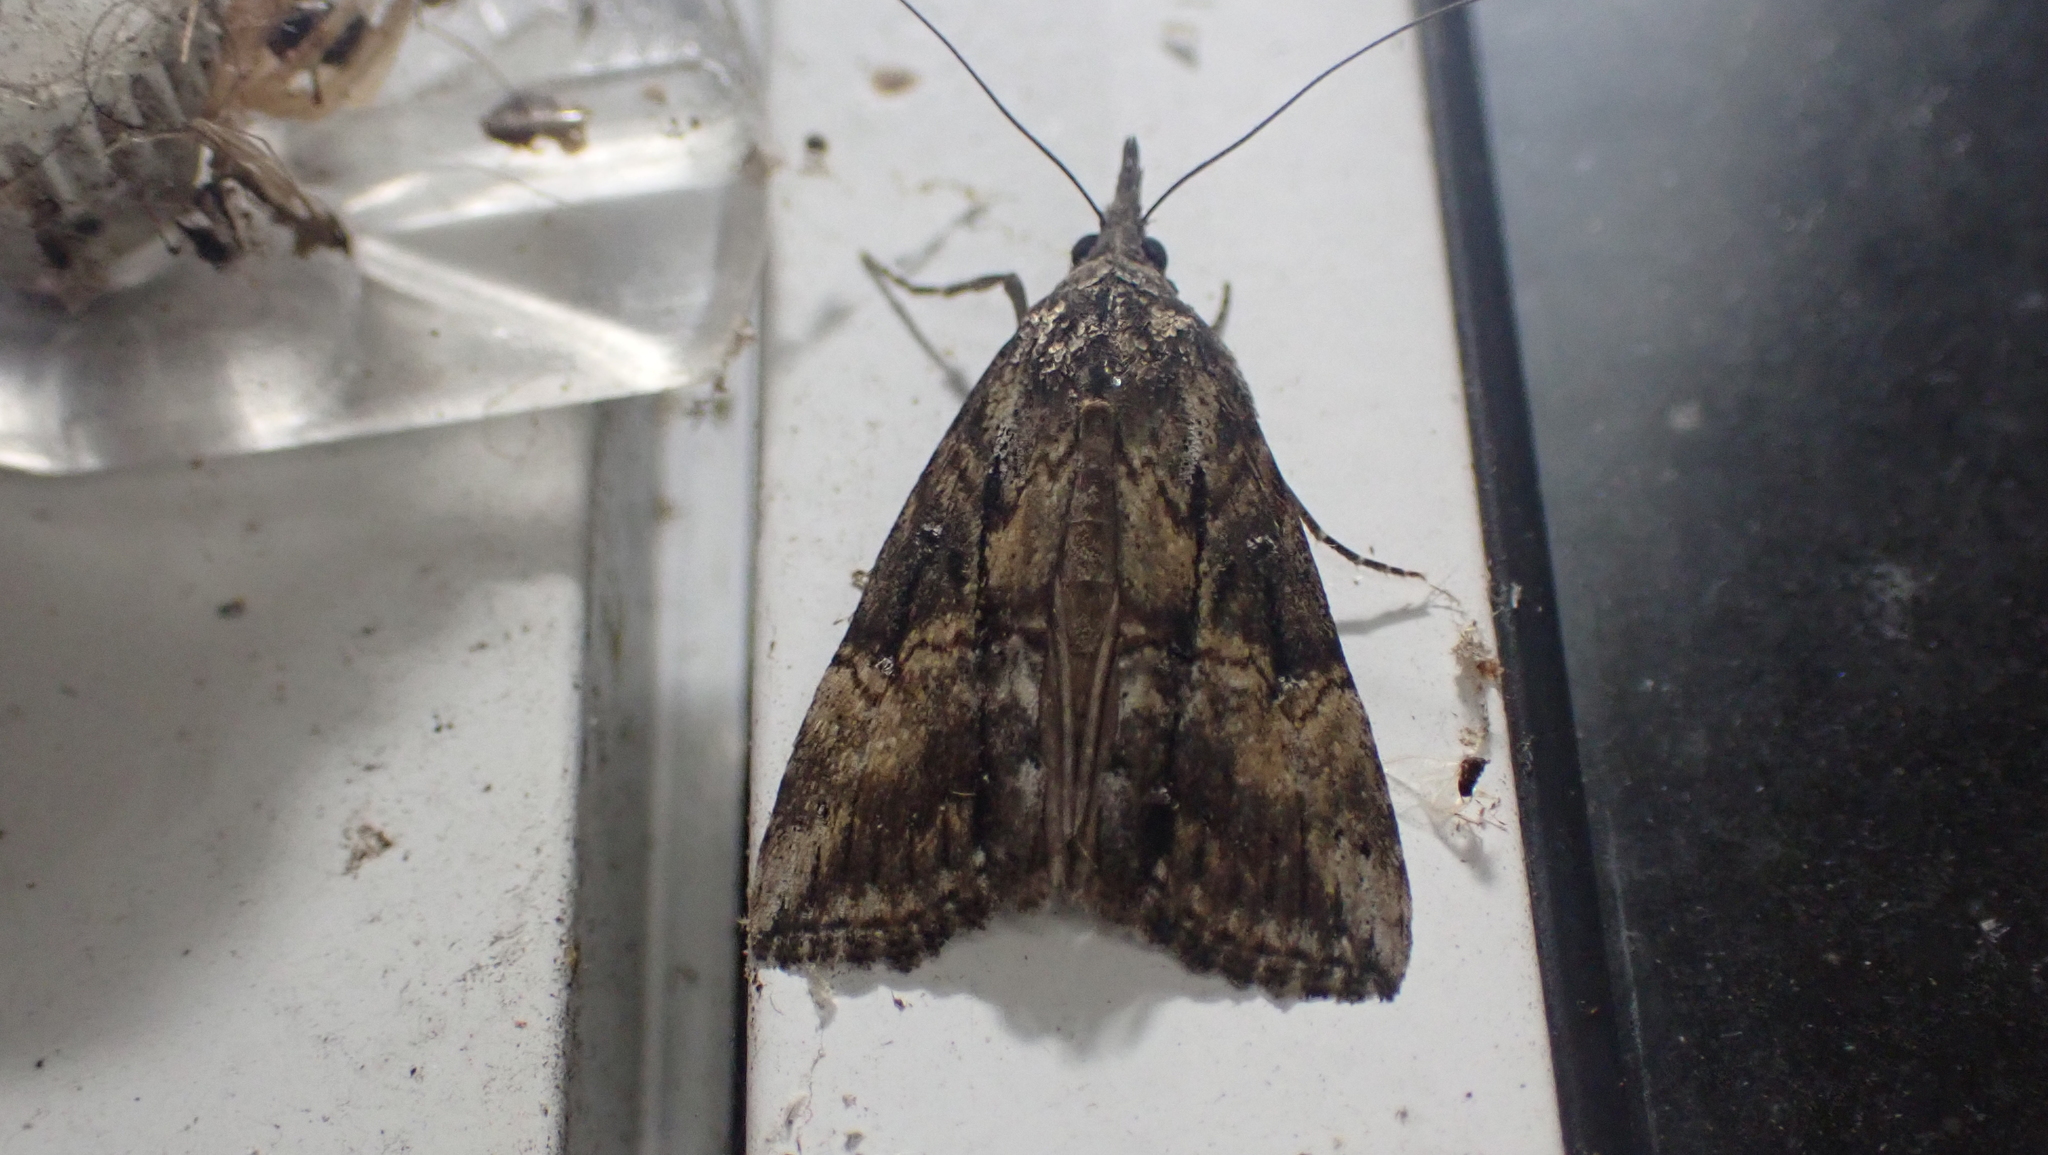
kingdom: Animalia
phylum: Arthropoda
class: Insecta
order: Lepidoptera
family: Erebidae
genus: Hypena
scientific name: Hypena scabra
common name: Green cloverworm
